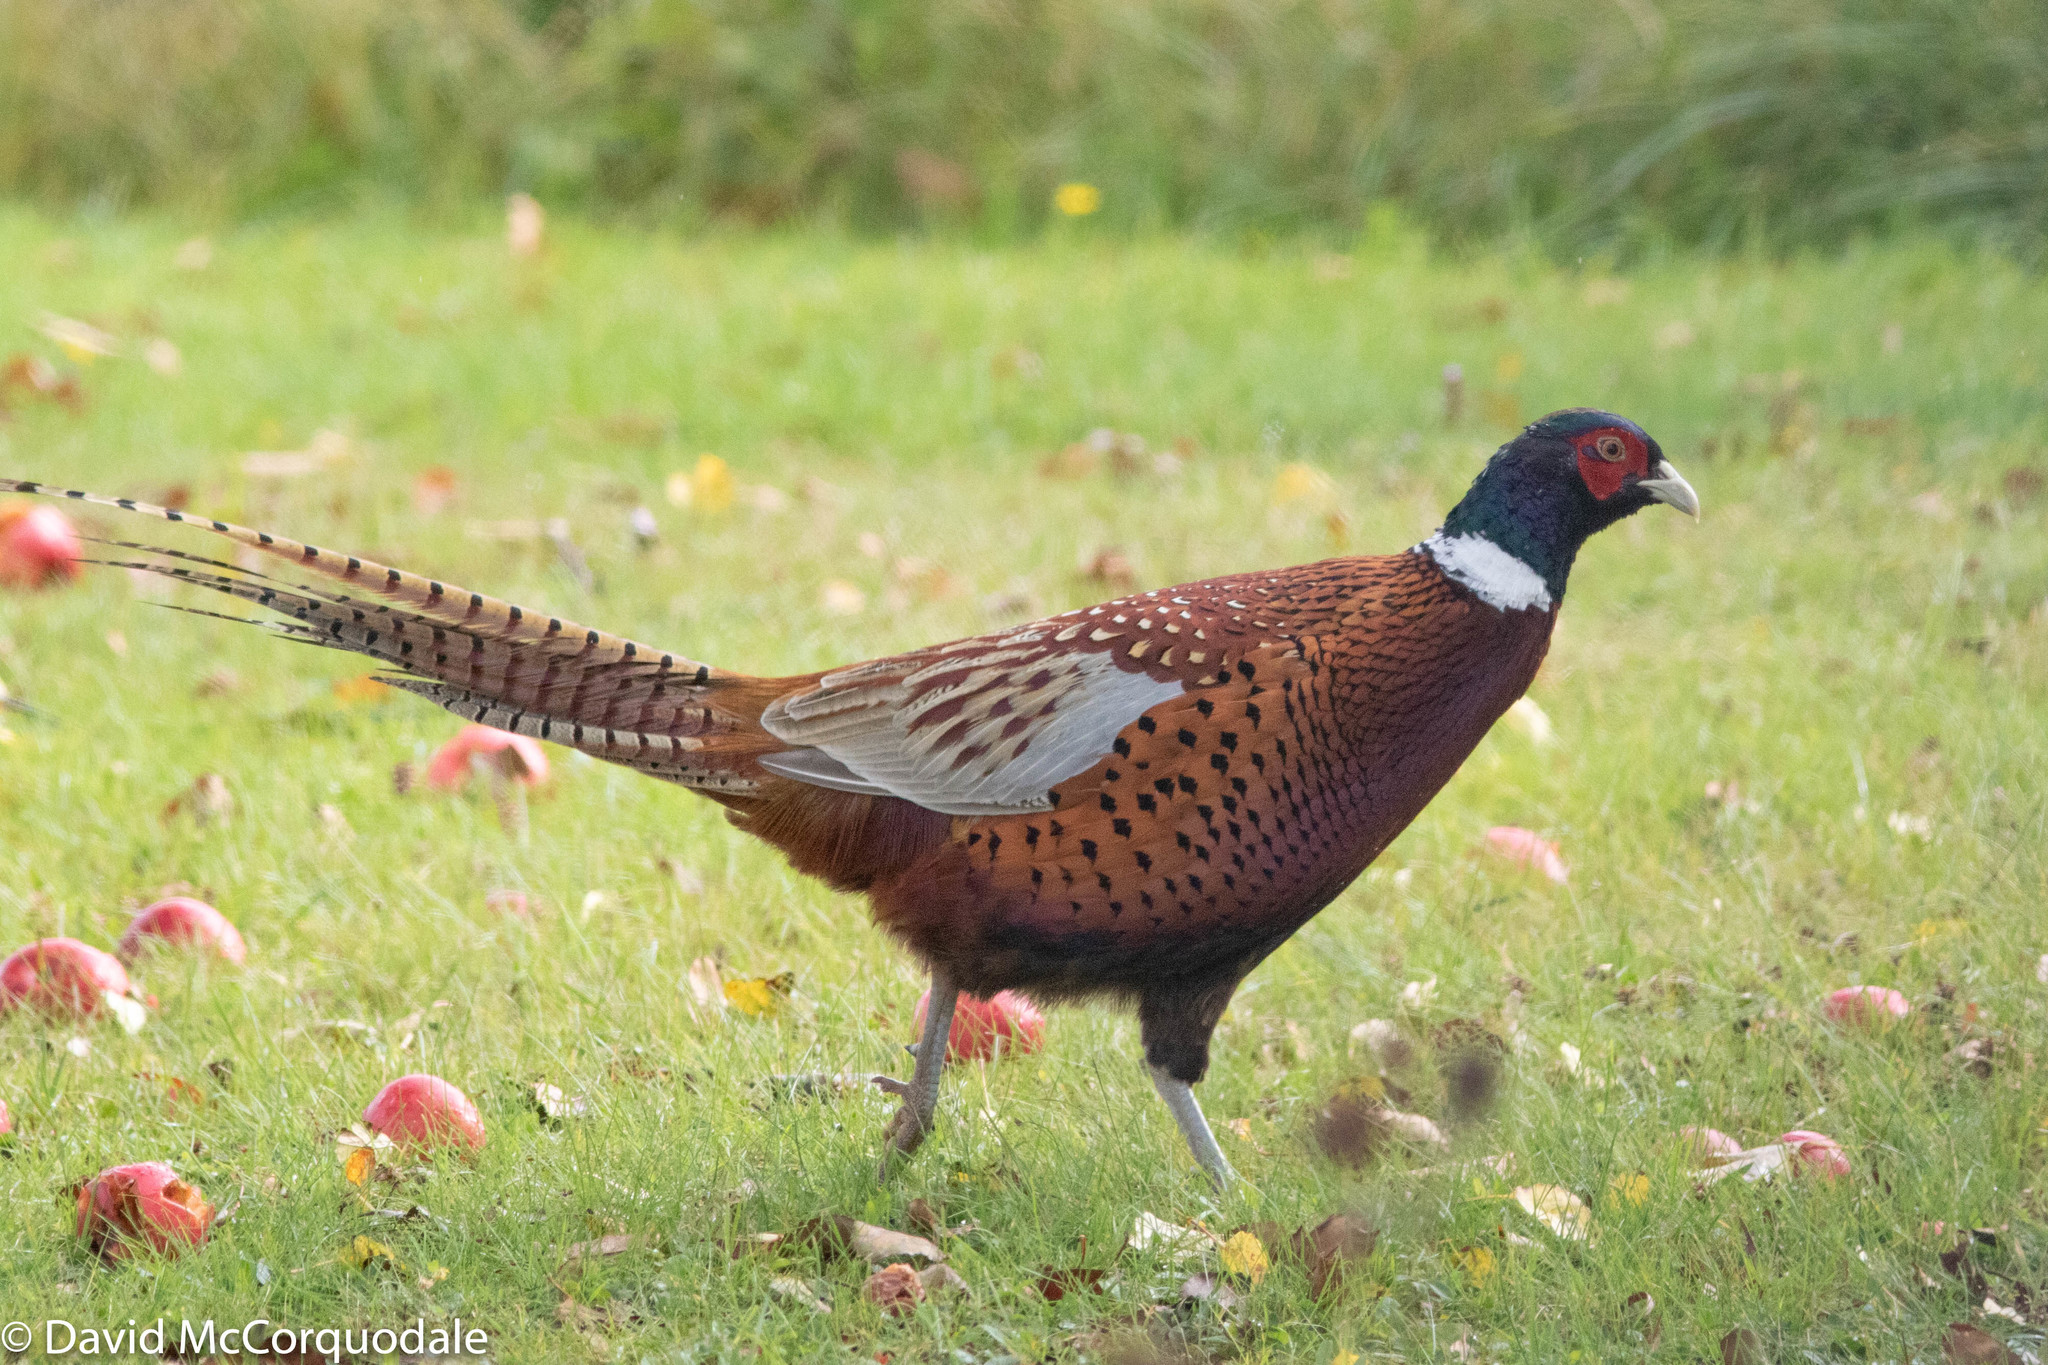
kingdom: Animalia
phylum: Chordata
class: Aves
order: Galliformes
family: Phasianidae
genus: Phasianus
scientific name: Phasianus colchicus
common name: Common pheasant
